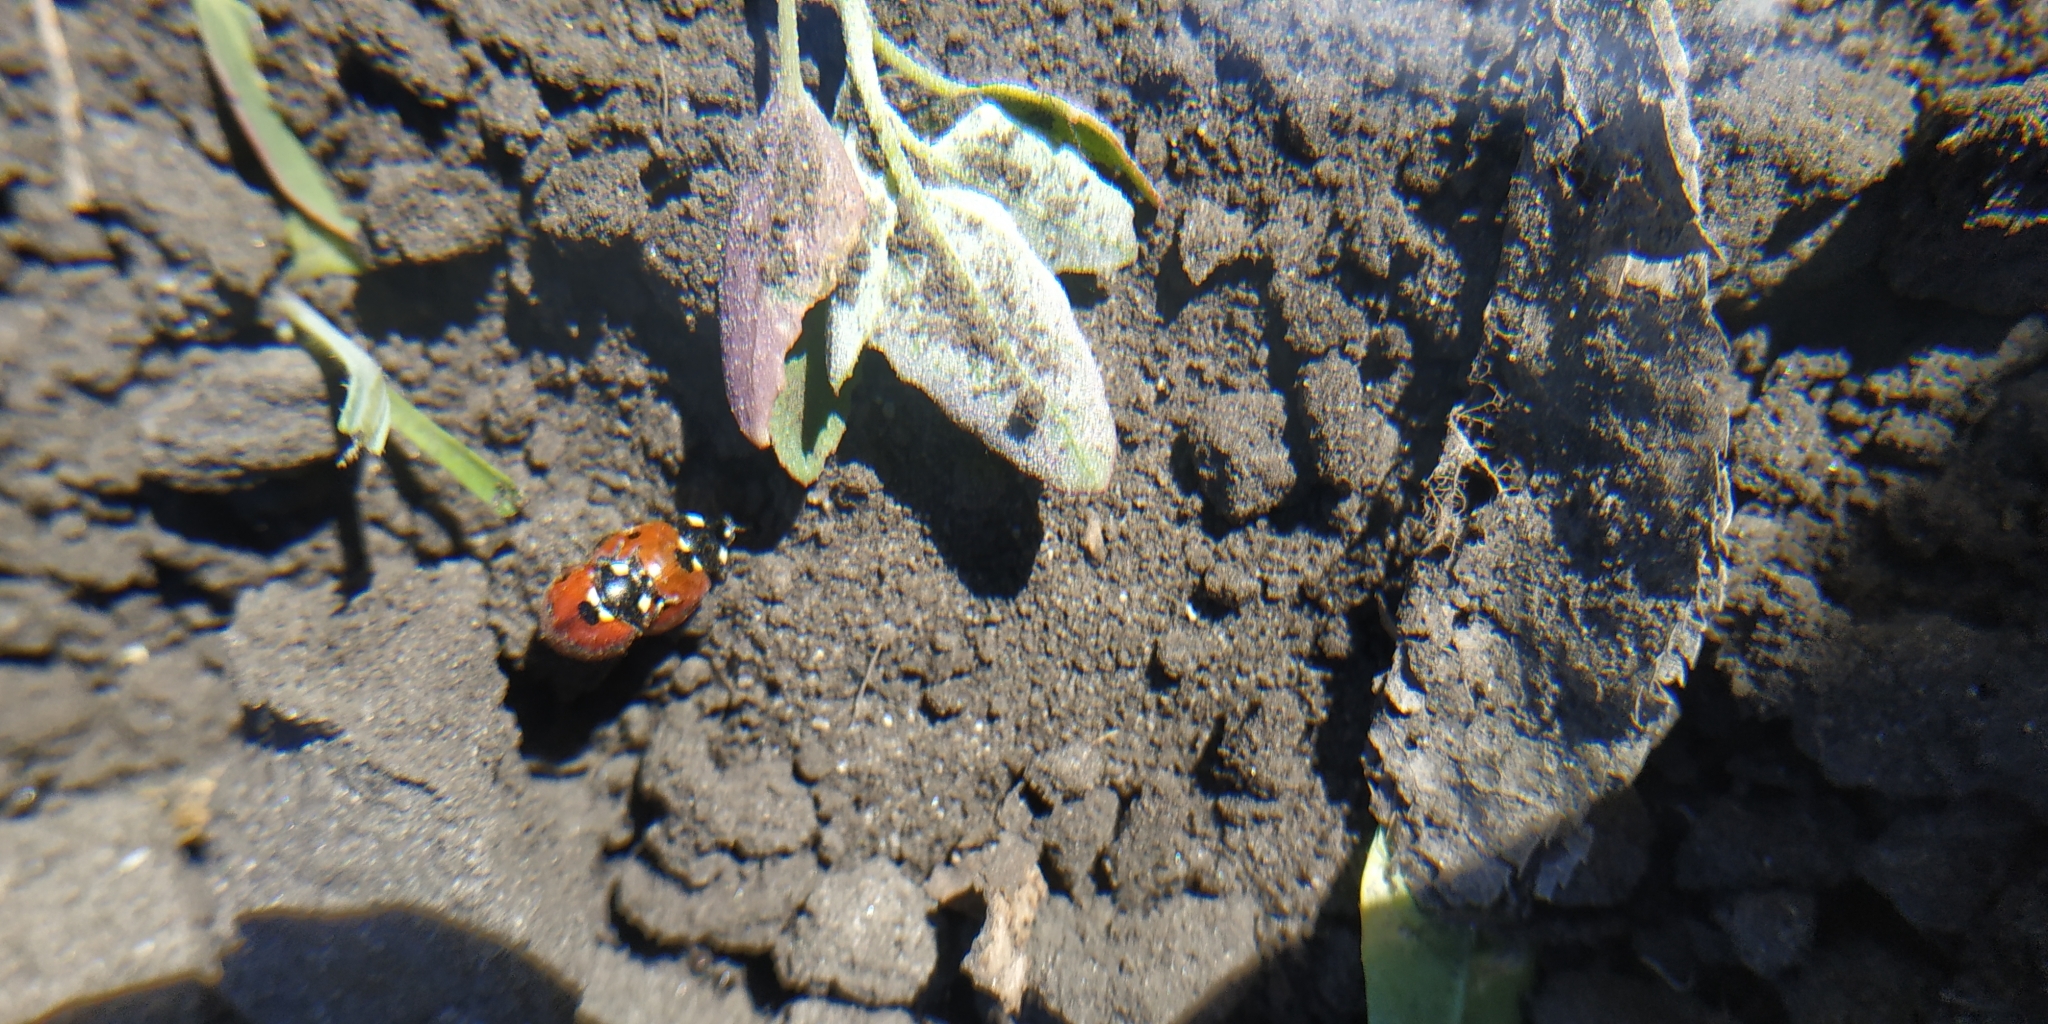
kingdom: Animalia
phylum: Arthropoda
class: Insecta
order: Coleoptera
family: Coccinellidae
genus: Coccinella
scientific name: Coccinella septempunctata
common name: Sevenspotted lady beetle
